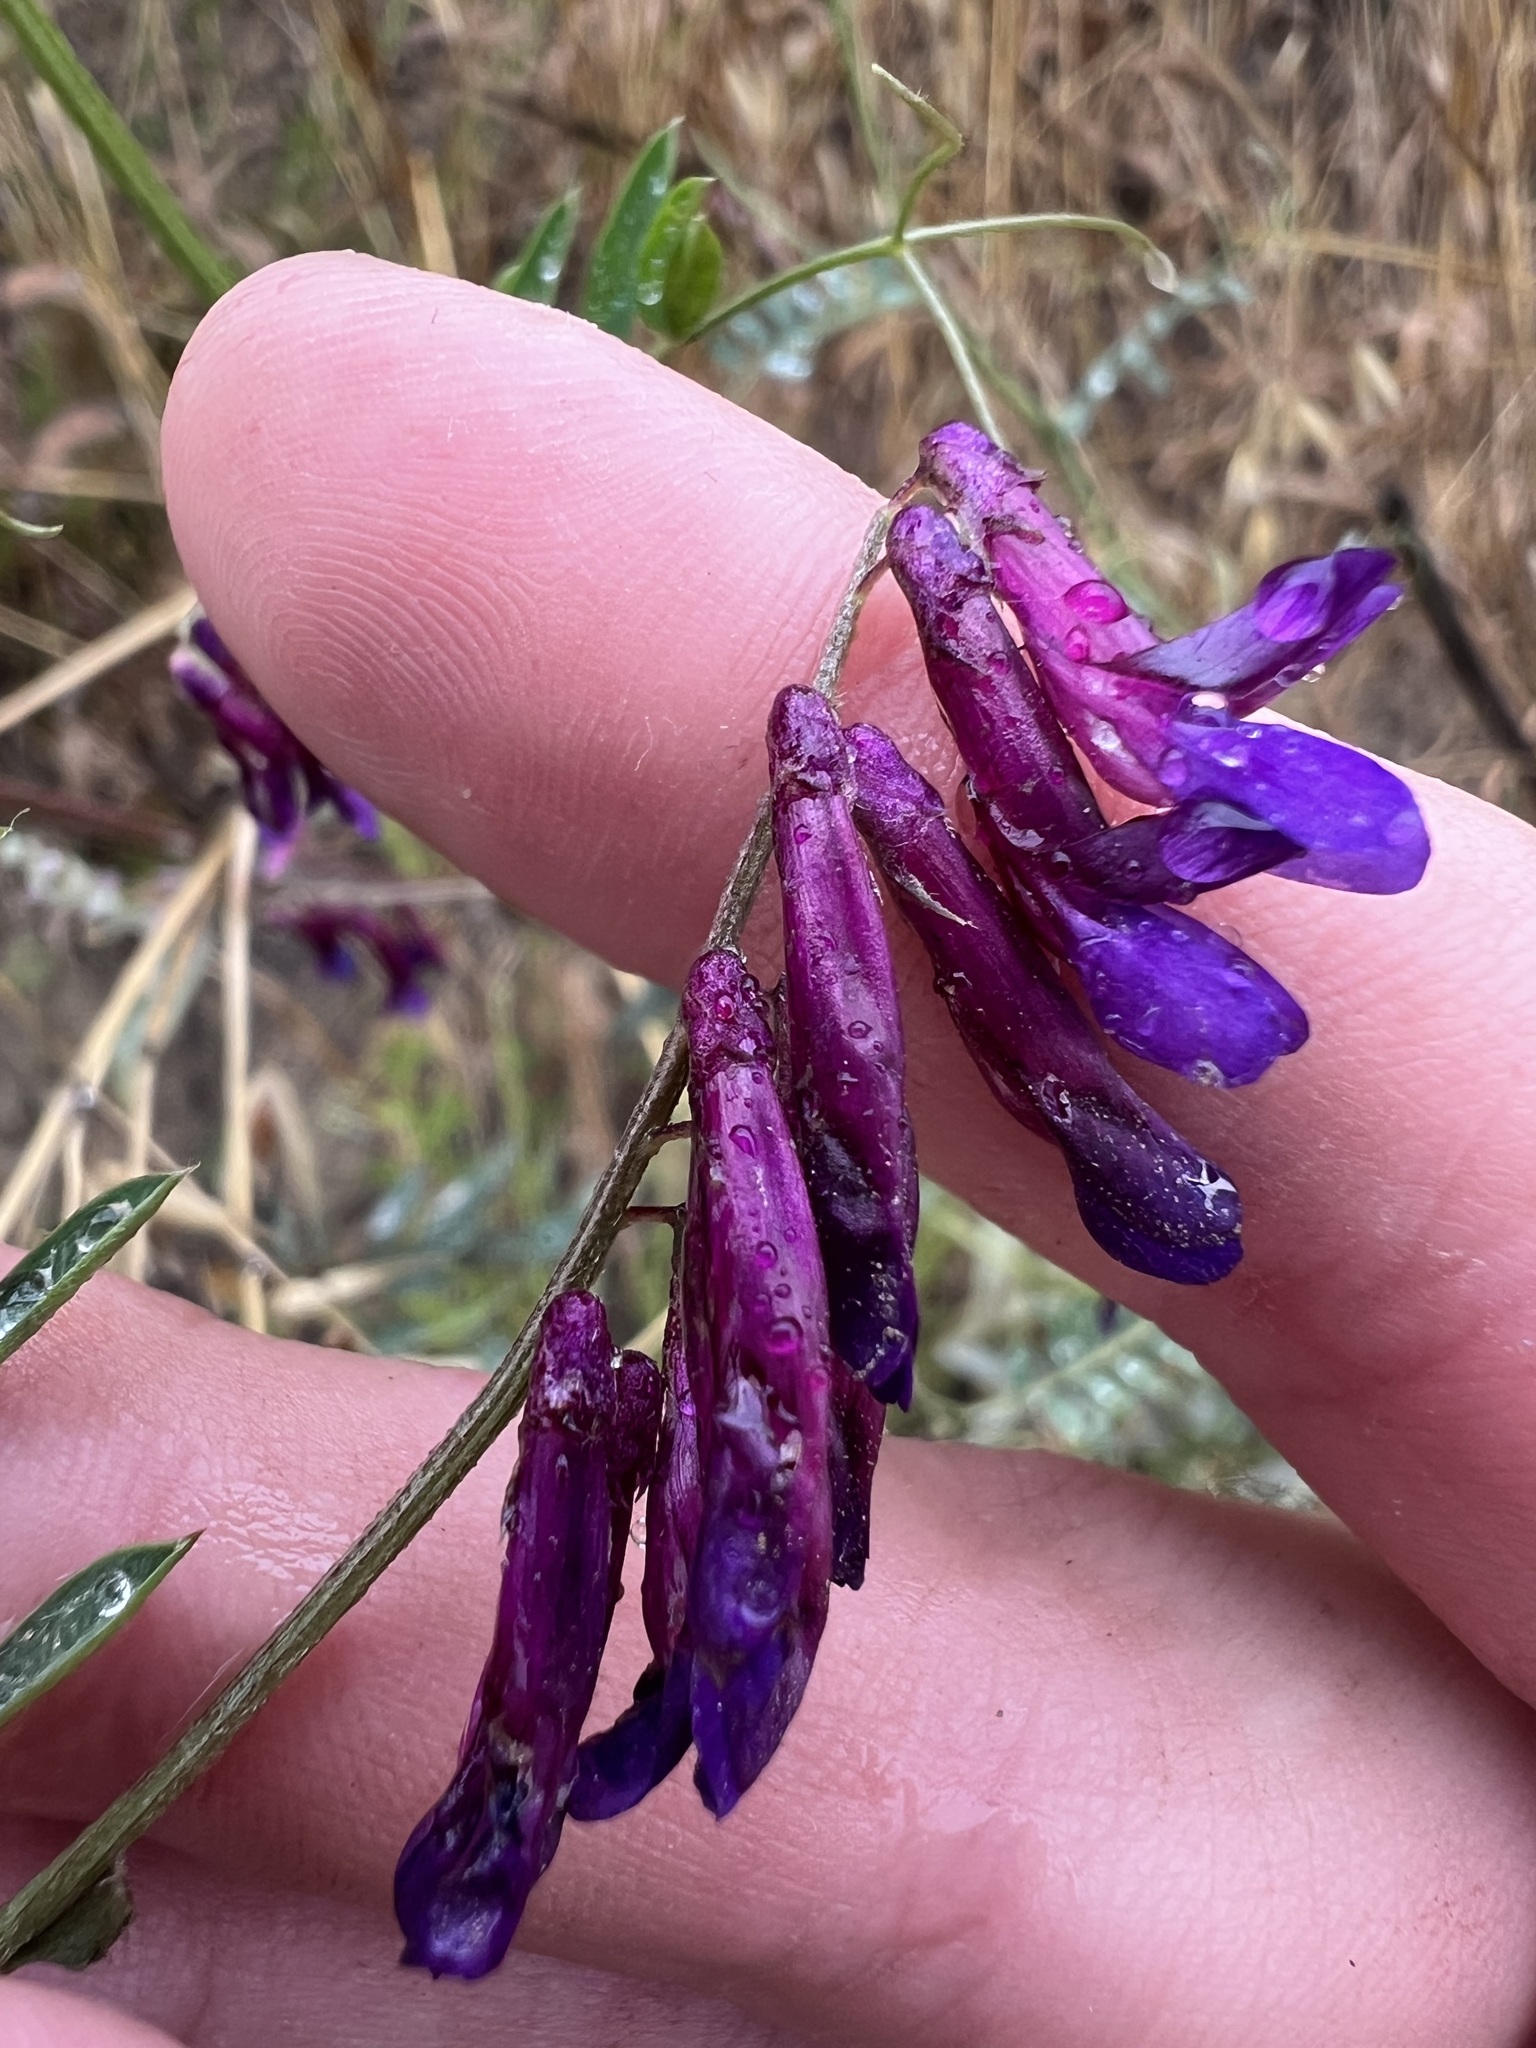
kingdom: Plantae
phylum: Tracheophyta
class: Magnoliopsida
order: Fabales
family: Fabaceae
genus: Vicia
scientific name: Vicia villosa
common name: Fodder vetch
